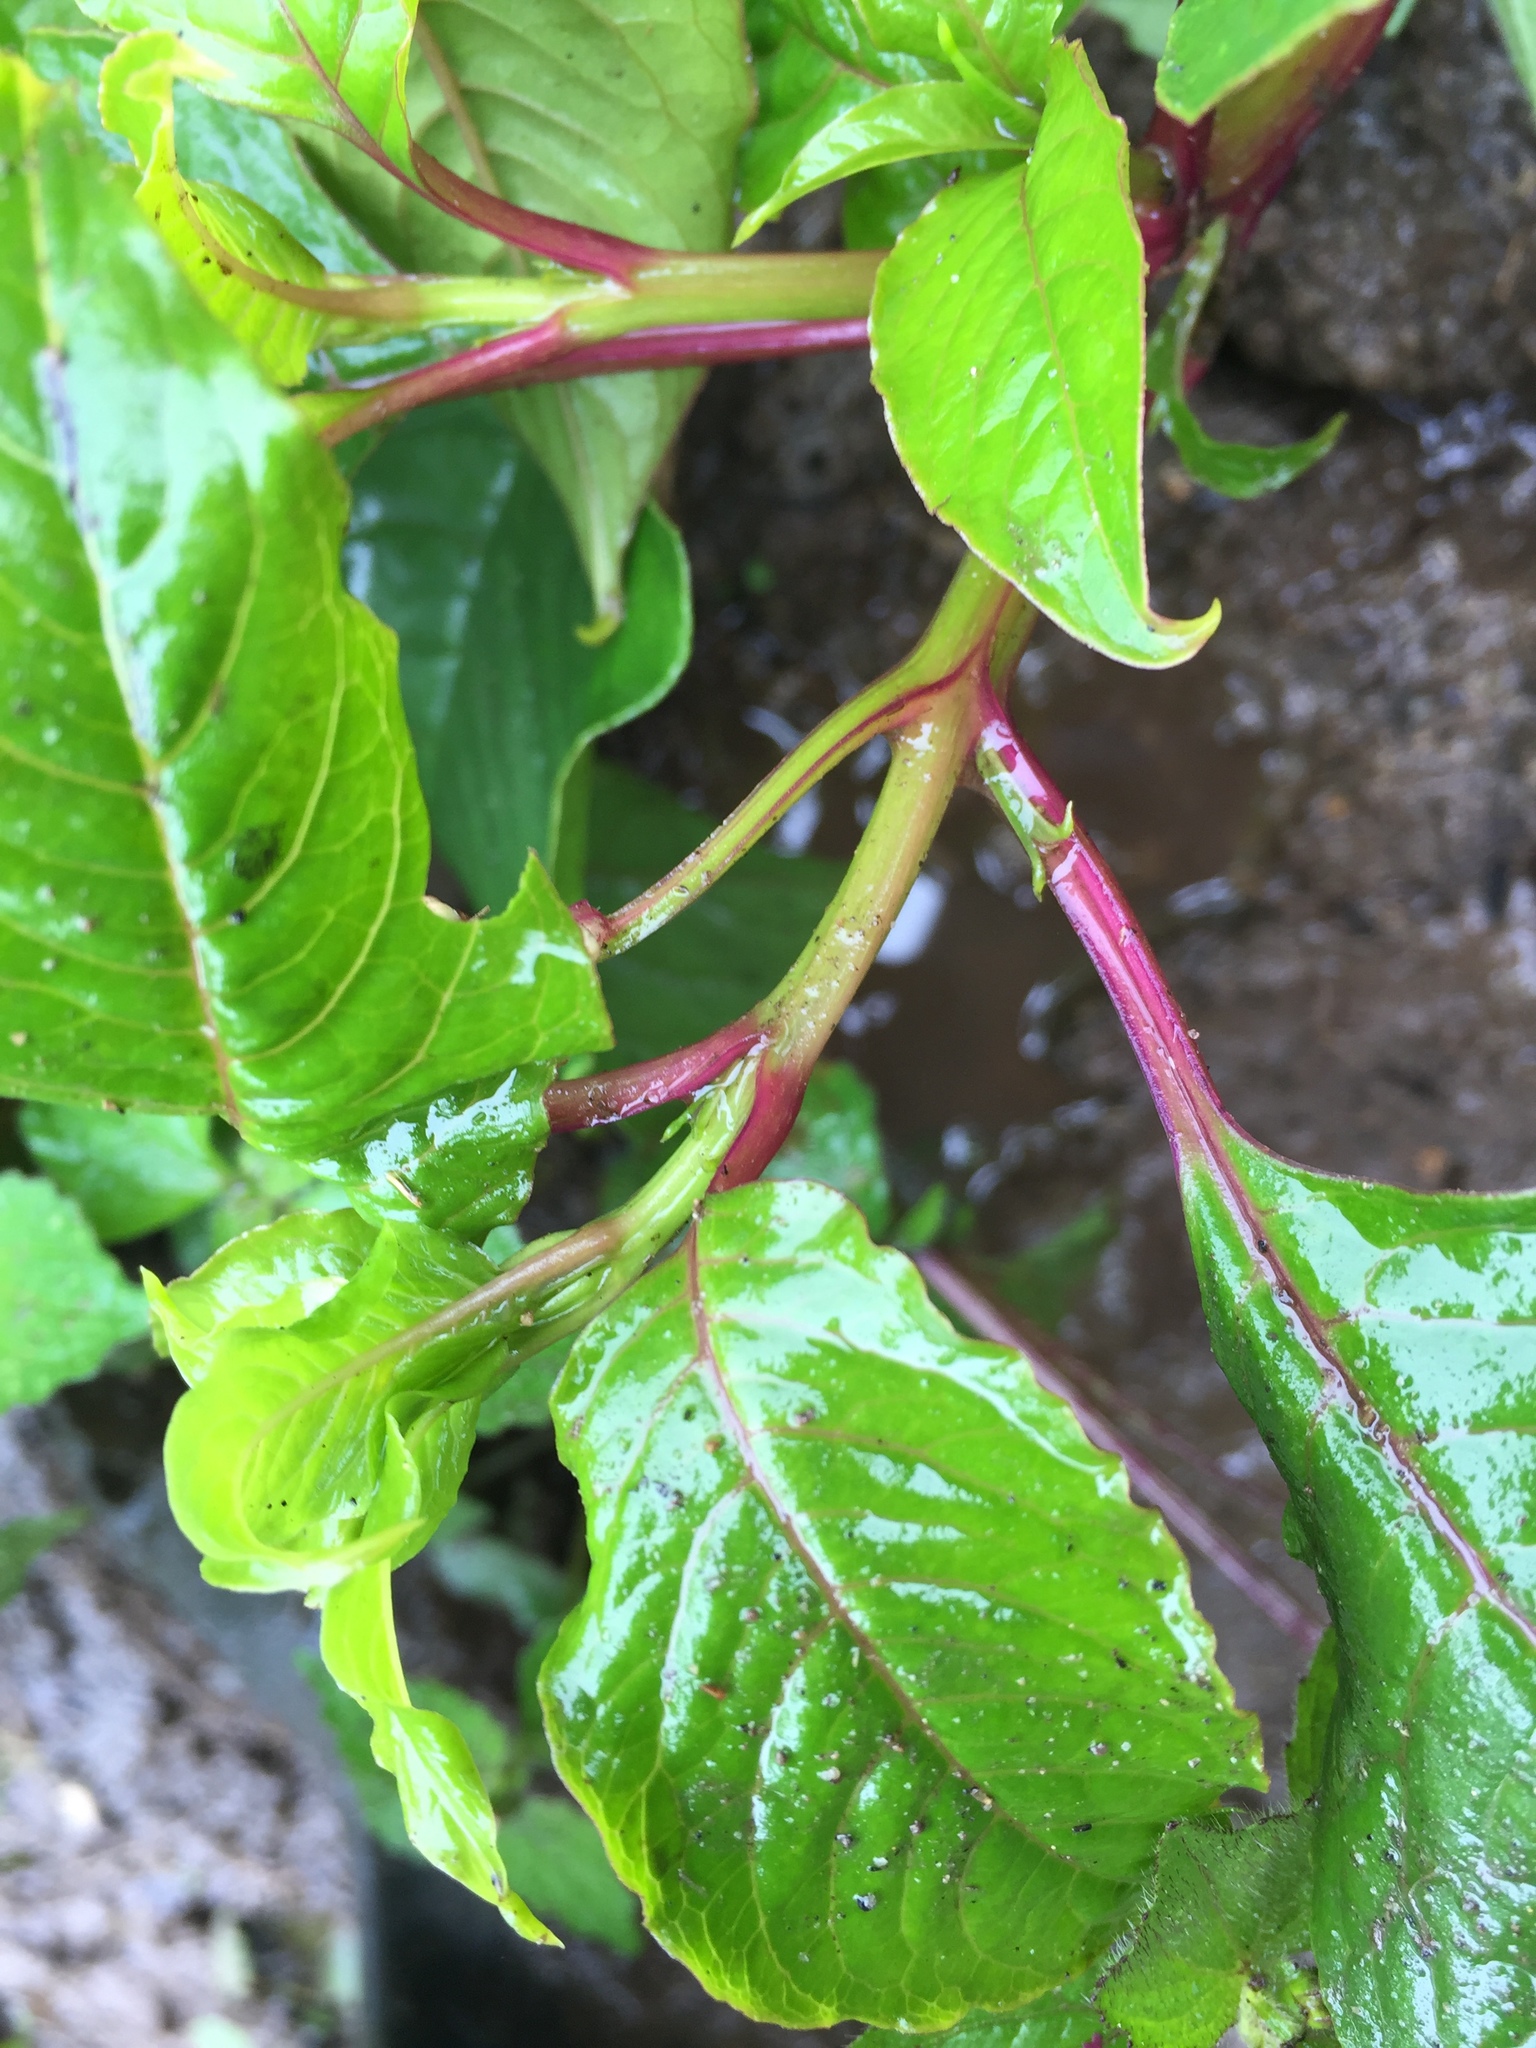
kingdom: Plantae
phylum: Tracheophyta
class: Magnoliopsida
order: Caryophyllales
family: Phytolaccaceae
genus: Phytolacca
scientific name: Phytolacca rivinoides
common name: Venezuelan pokeweed
